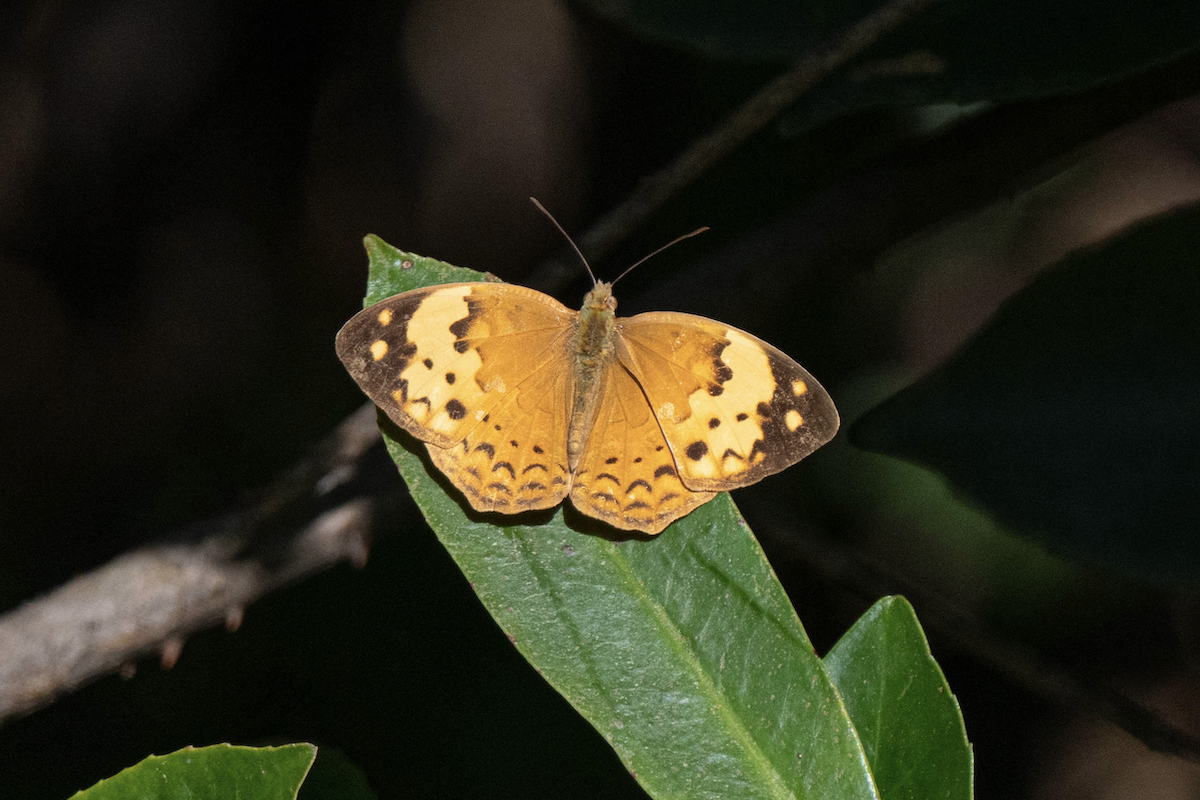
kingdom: Animalia
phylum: Arthropoda
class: Insecta
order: Lepidoptera
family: Nymphalidae
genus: Cupha
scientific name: Cupha erymanthis
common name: Rustic
